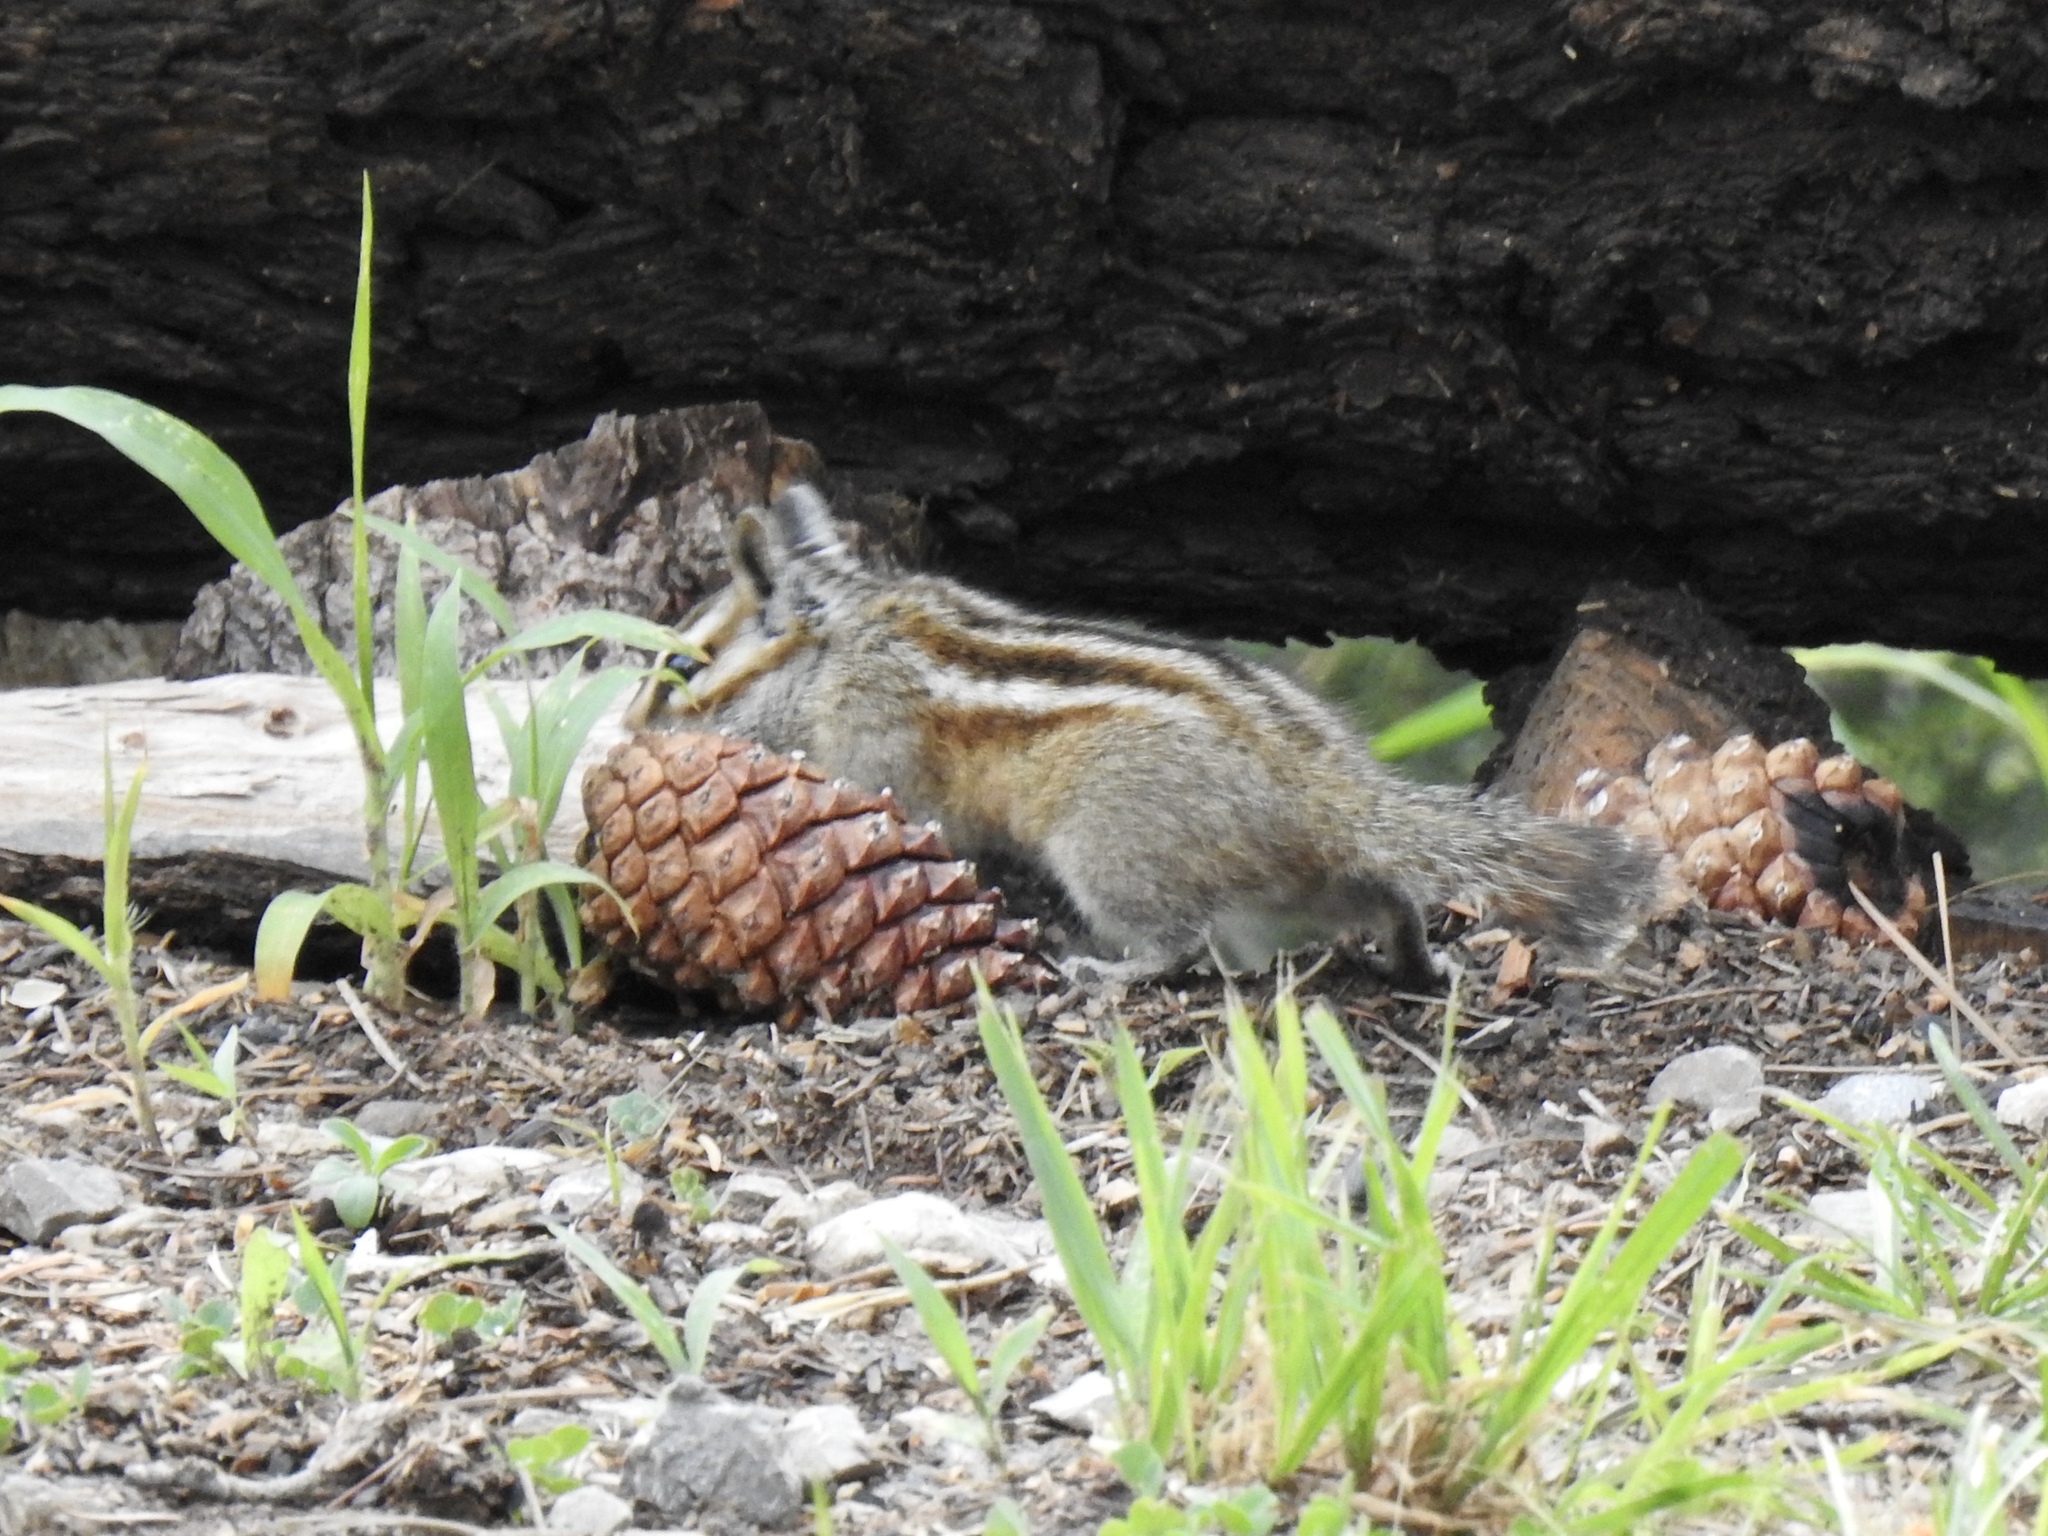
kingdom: Animalia
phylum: Chordata
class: Mammalia
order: Rodentia
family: Sciuridae
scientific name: Sciuridae
